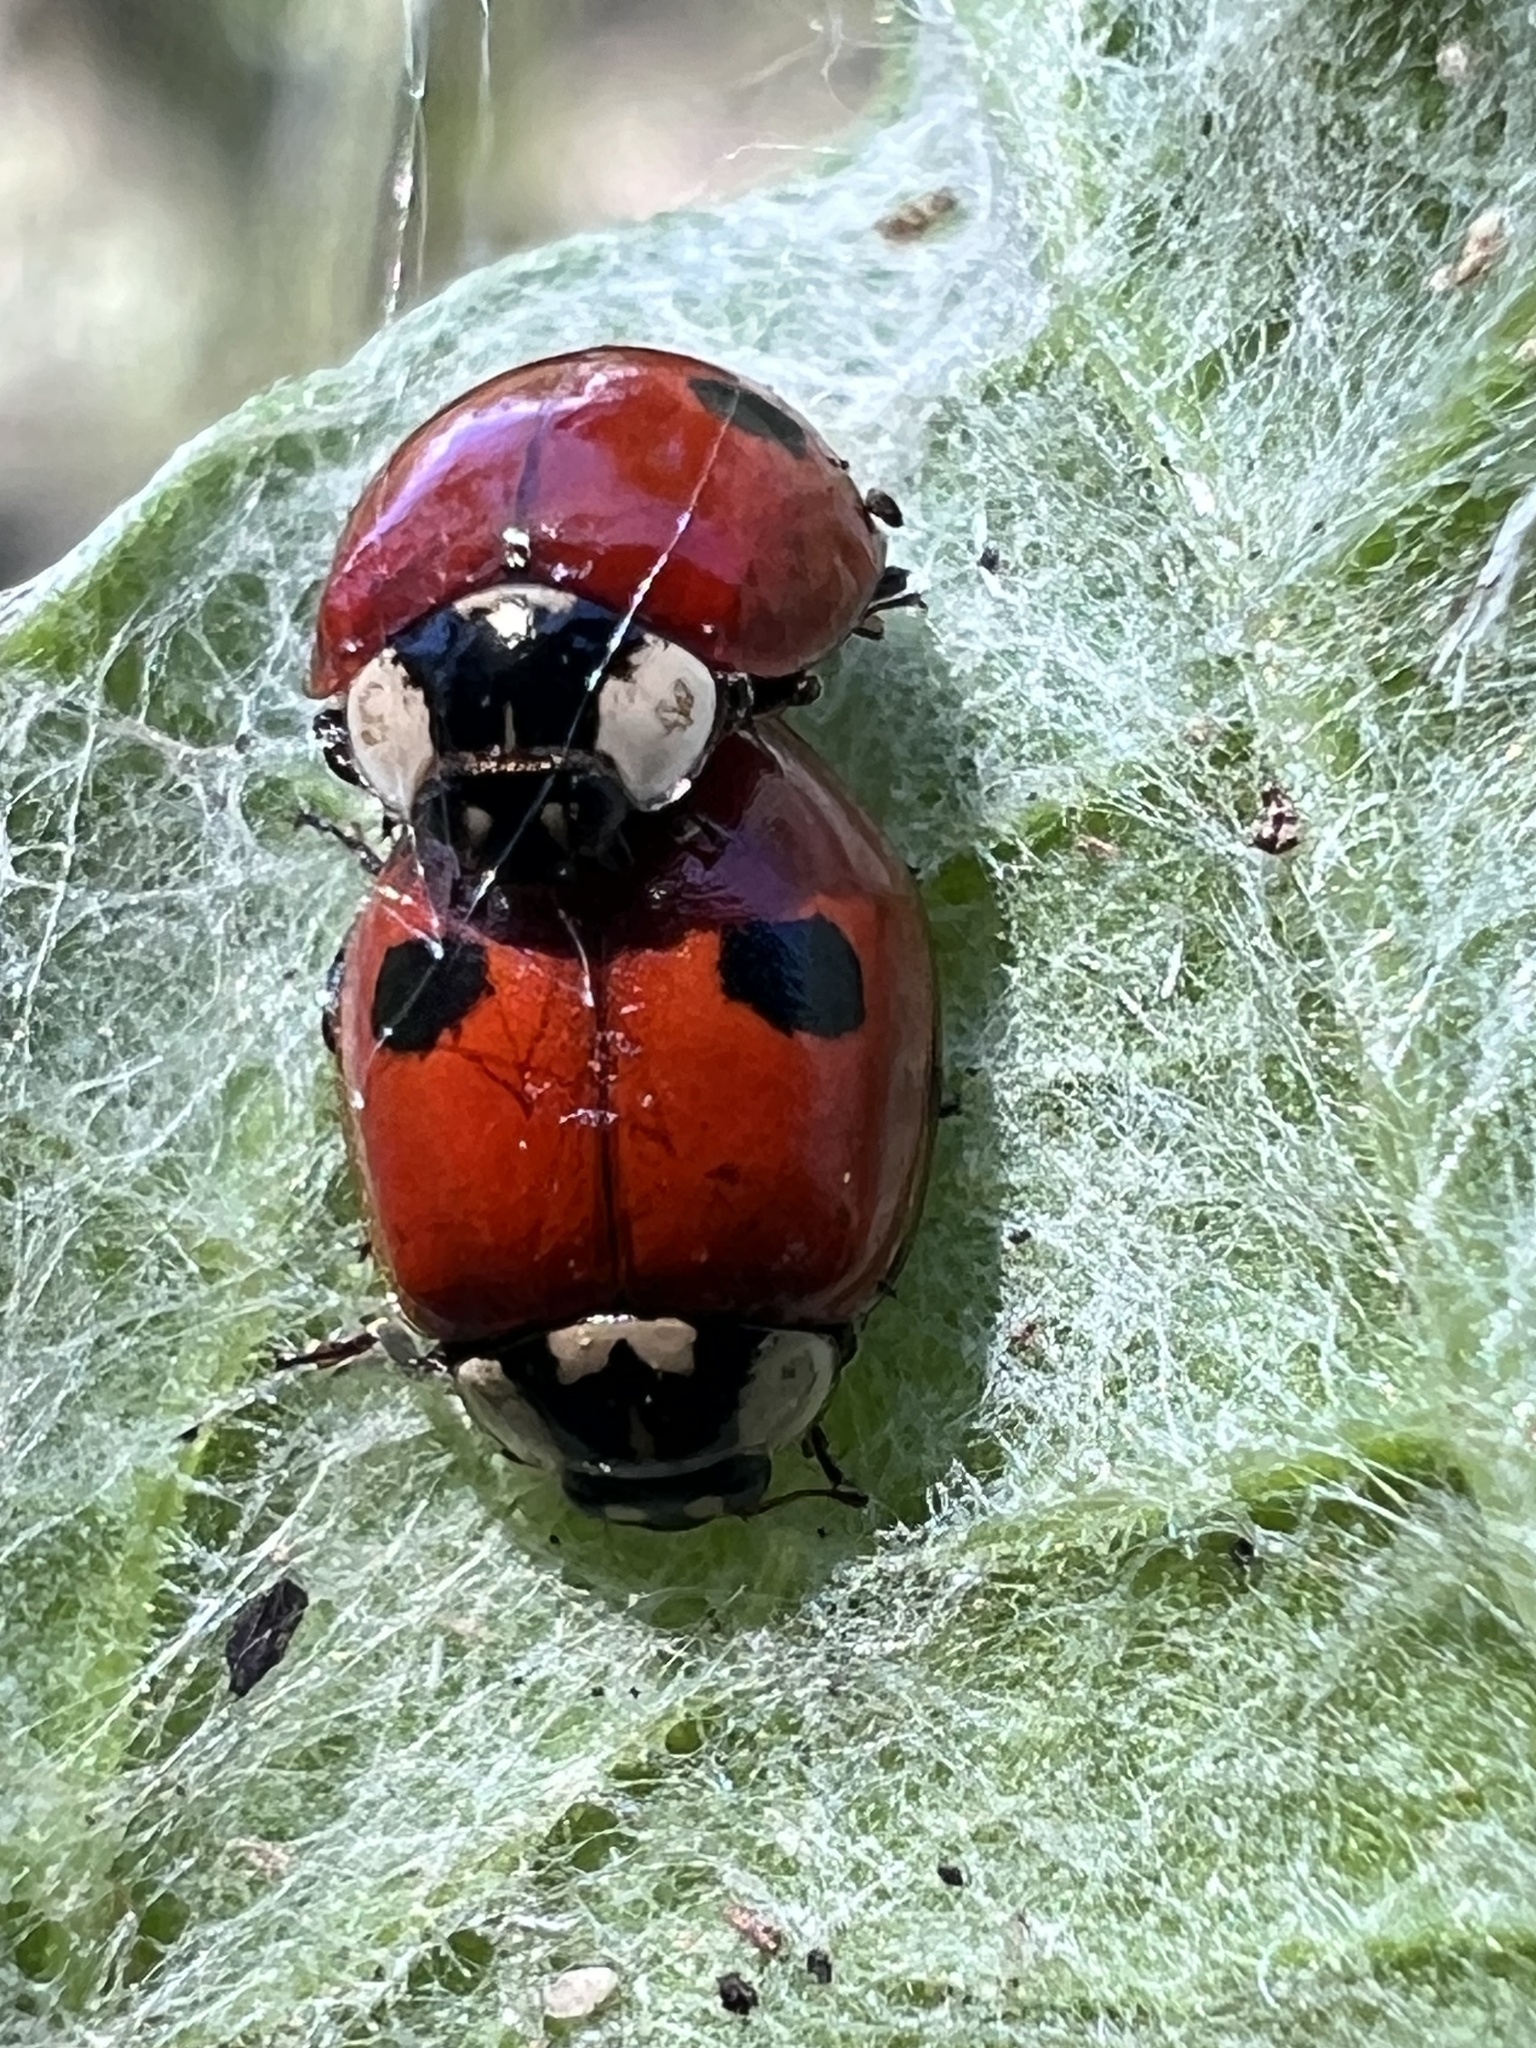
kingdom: Animalia
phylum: Arthropoda
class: Insecta
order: Coleoptera
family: Coccinellidae
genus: Adalia
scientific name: Adalia bipunctata
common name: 2-spot ladybird
